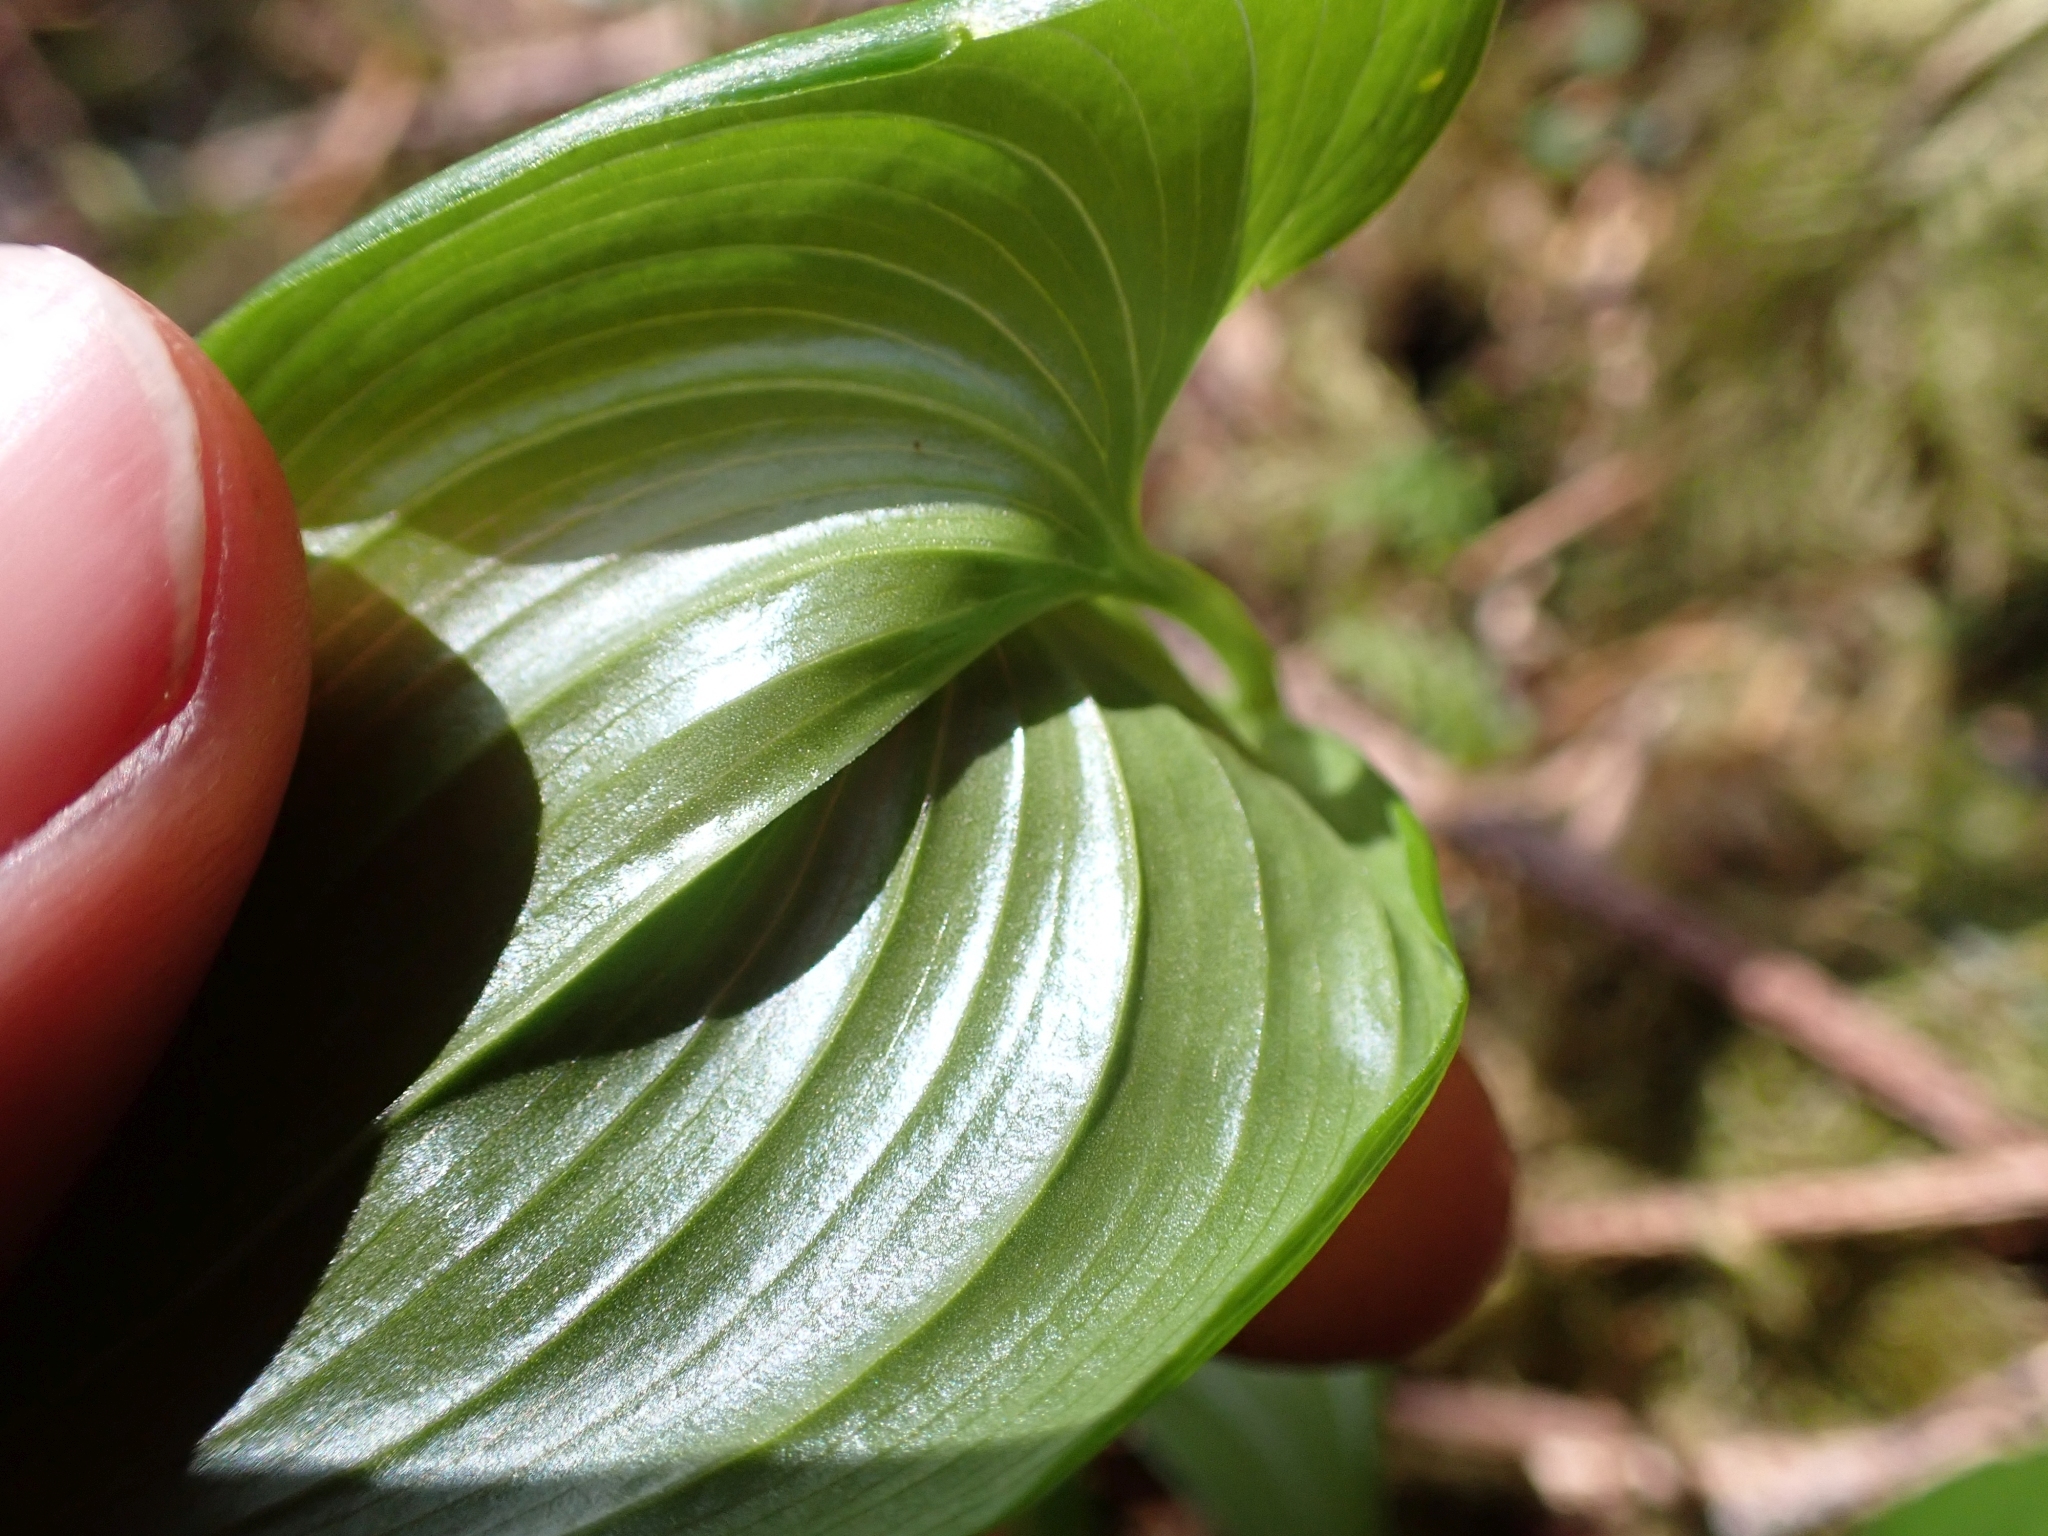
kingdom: Plantae
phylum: Tracheophyta
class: Liliopsida
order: Asparagales
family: Asparagaceae
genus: Maianthemum
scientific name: Maianthemum dilatatum
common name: False lily-of-the-valley
